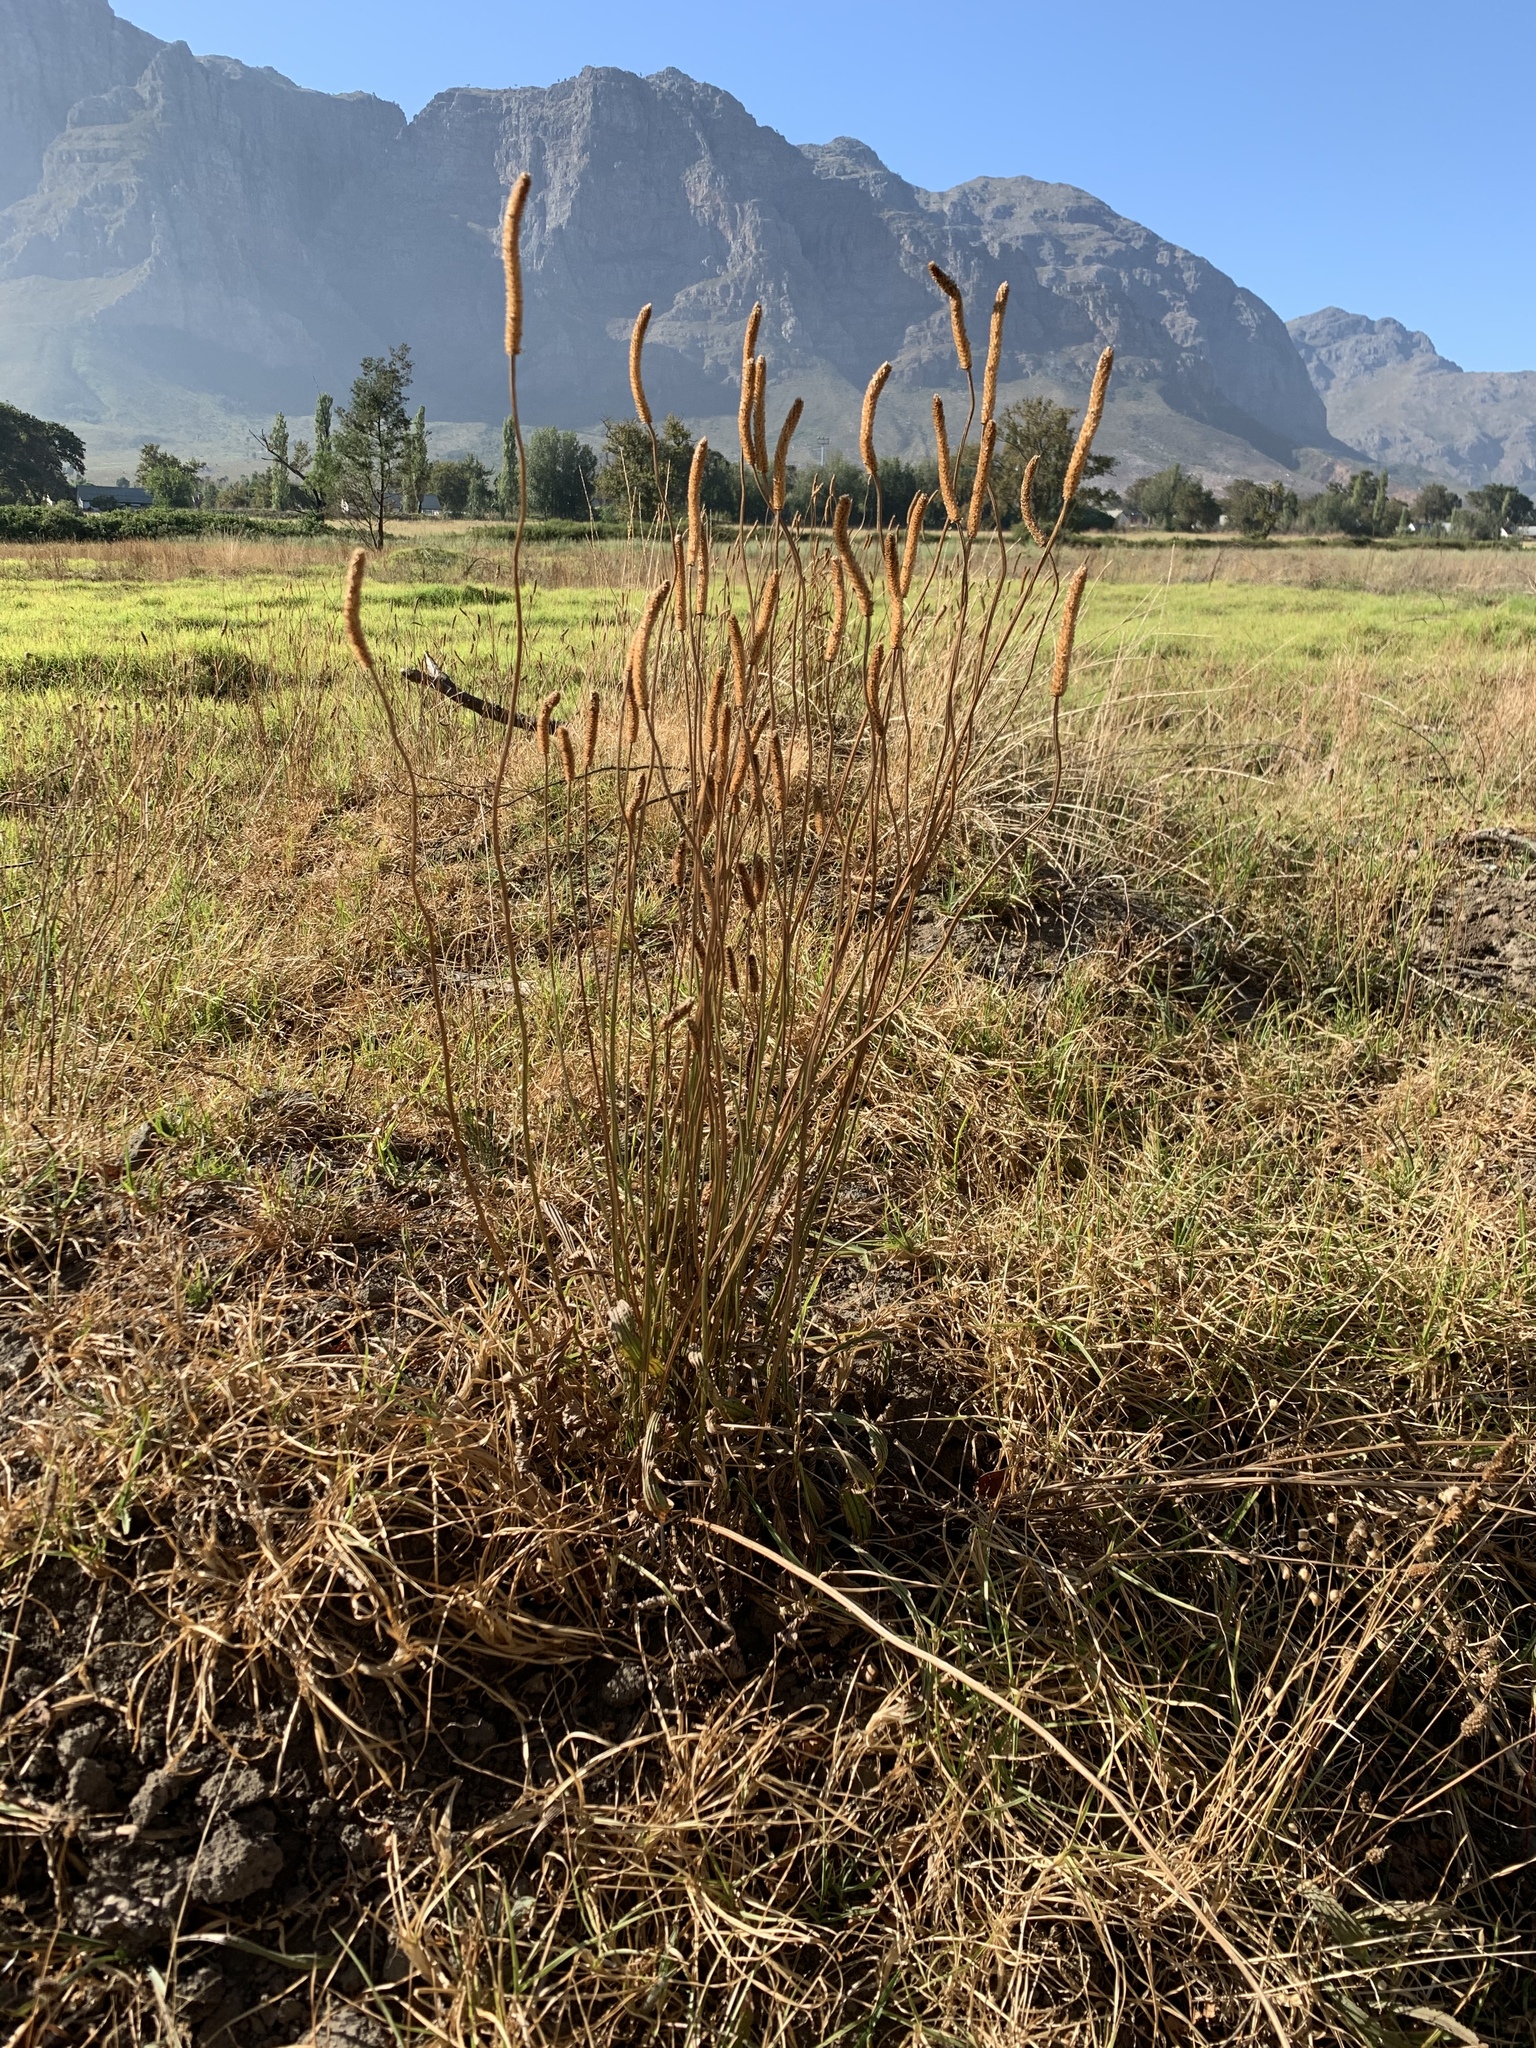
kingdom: Plantae
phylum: Tracheophyta
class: Magnoliopsida
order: Lamiales
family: Plantaginaceae
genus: Plantago
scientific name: Plantago lanceolata
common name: Ribwort plantain
